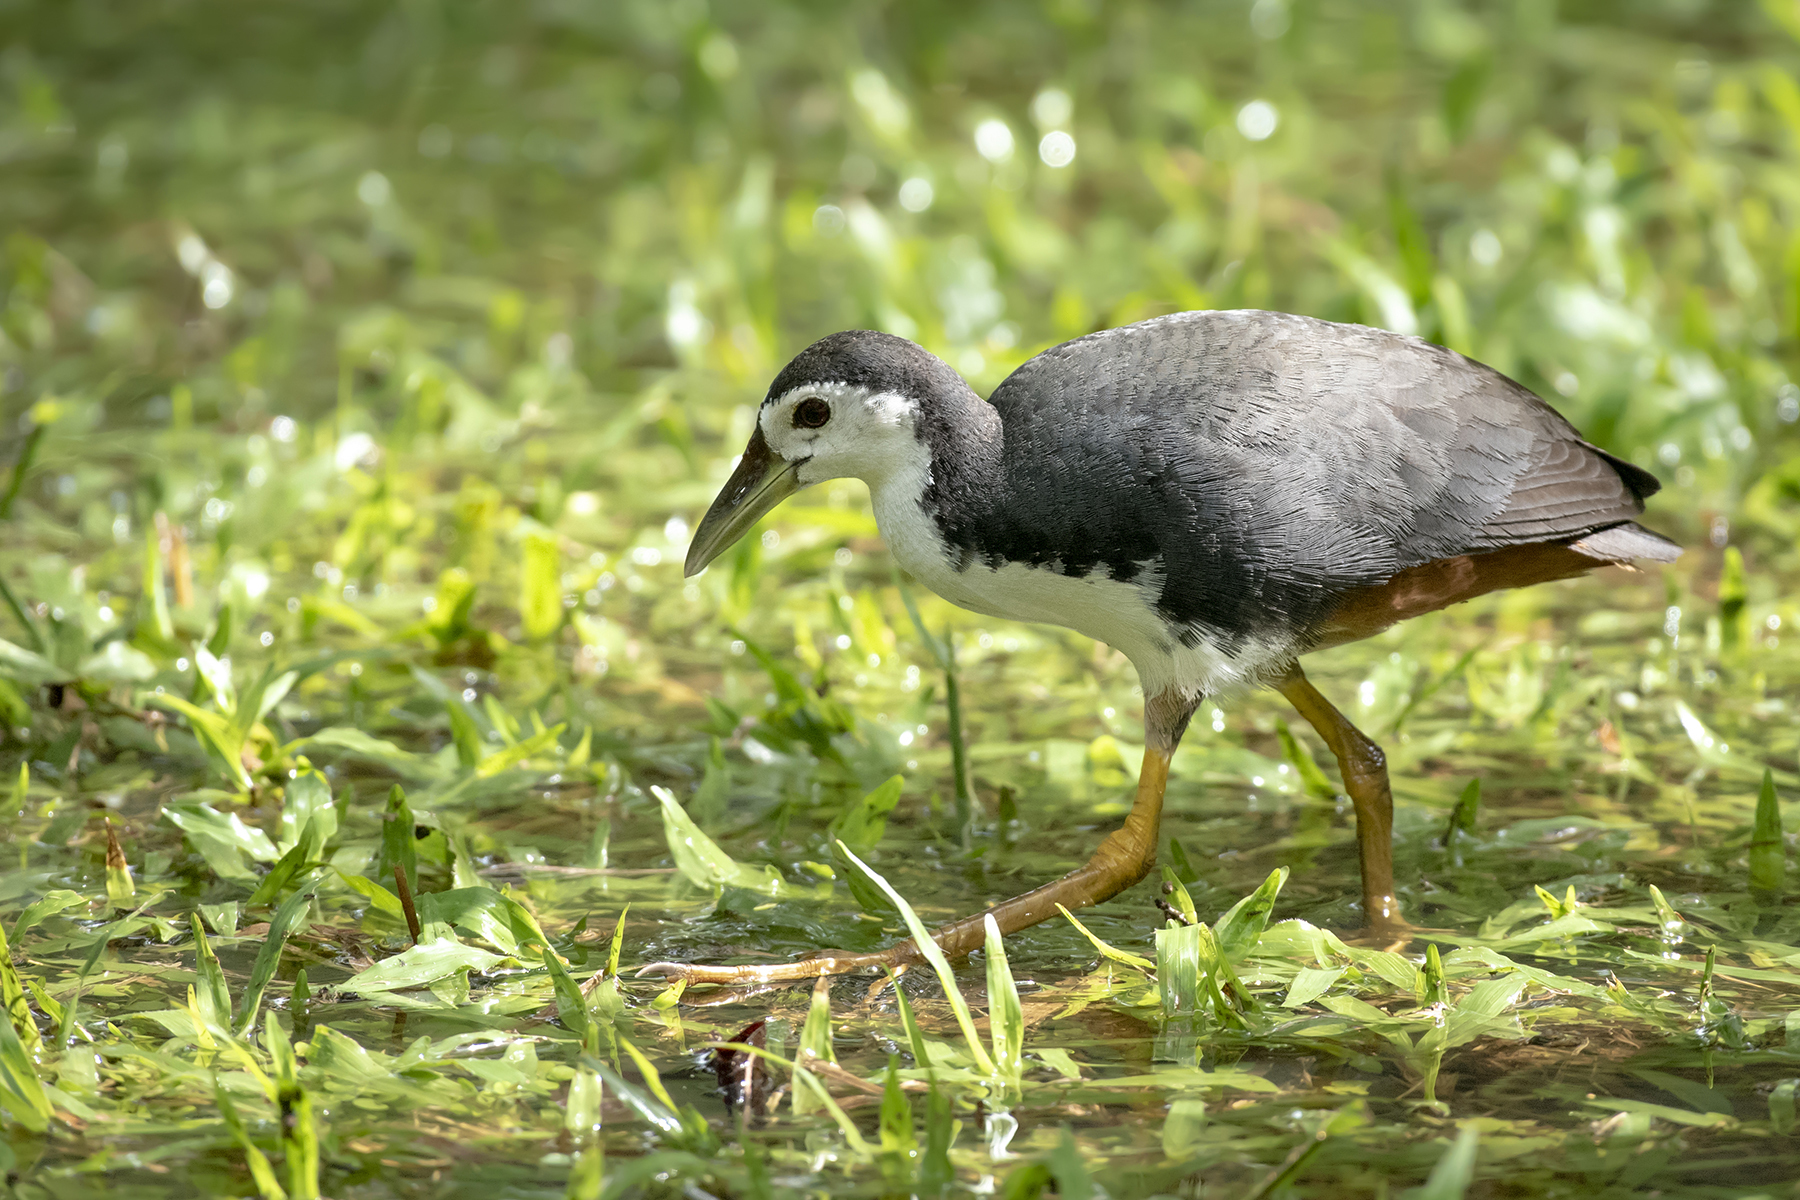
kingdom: Animalia
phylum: Chordata
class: Aves
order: Gruiformes
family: Rallidae
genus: Amaurornis
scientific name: Amaurornis phoenicurus
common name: White-breasted waterhen
